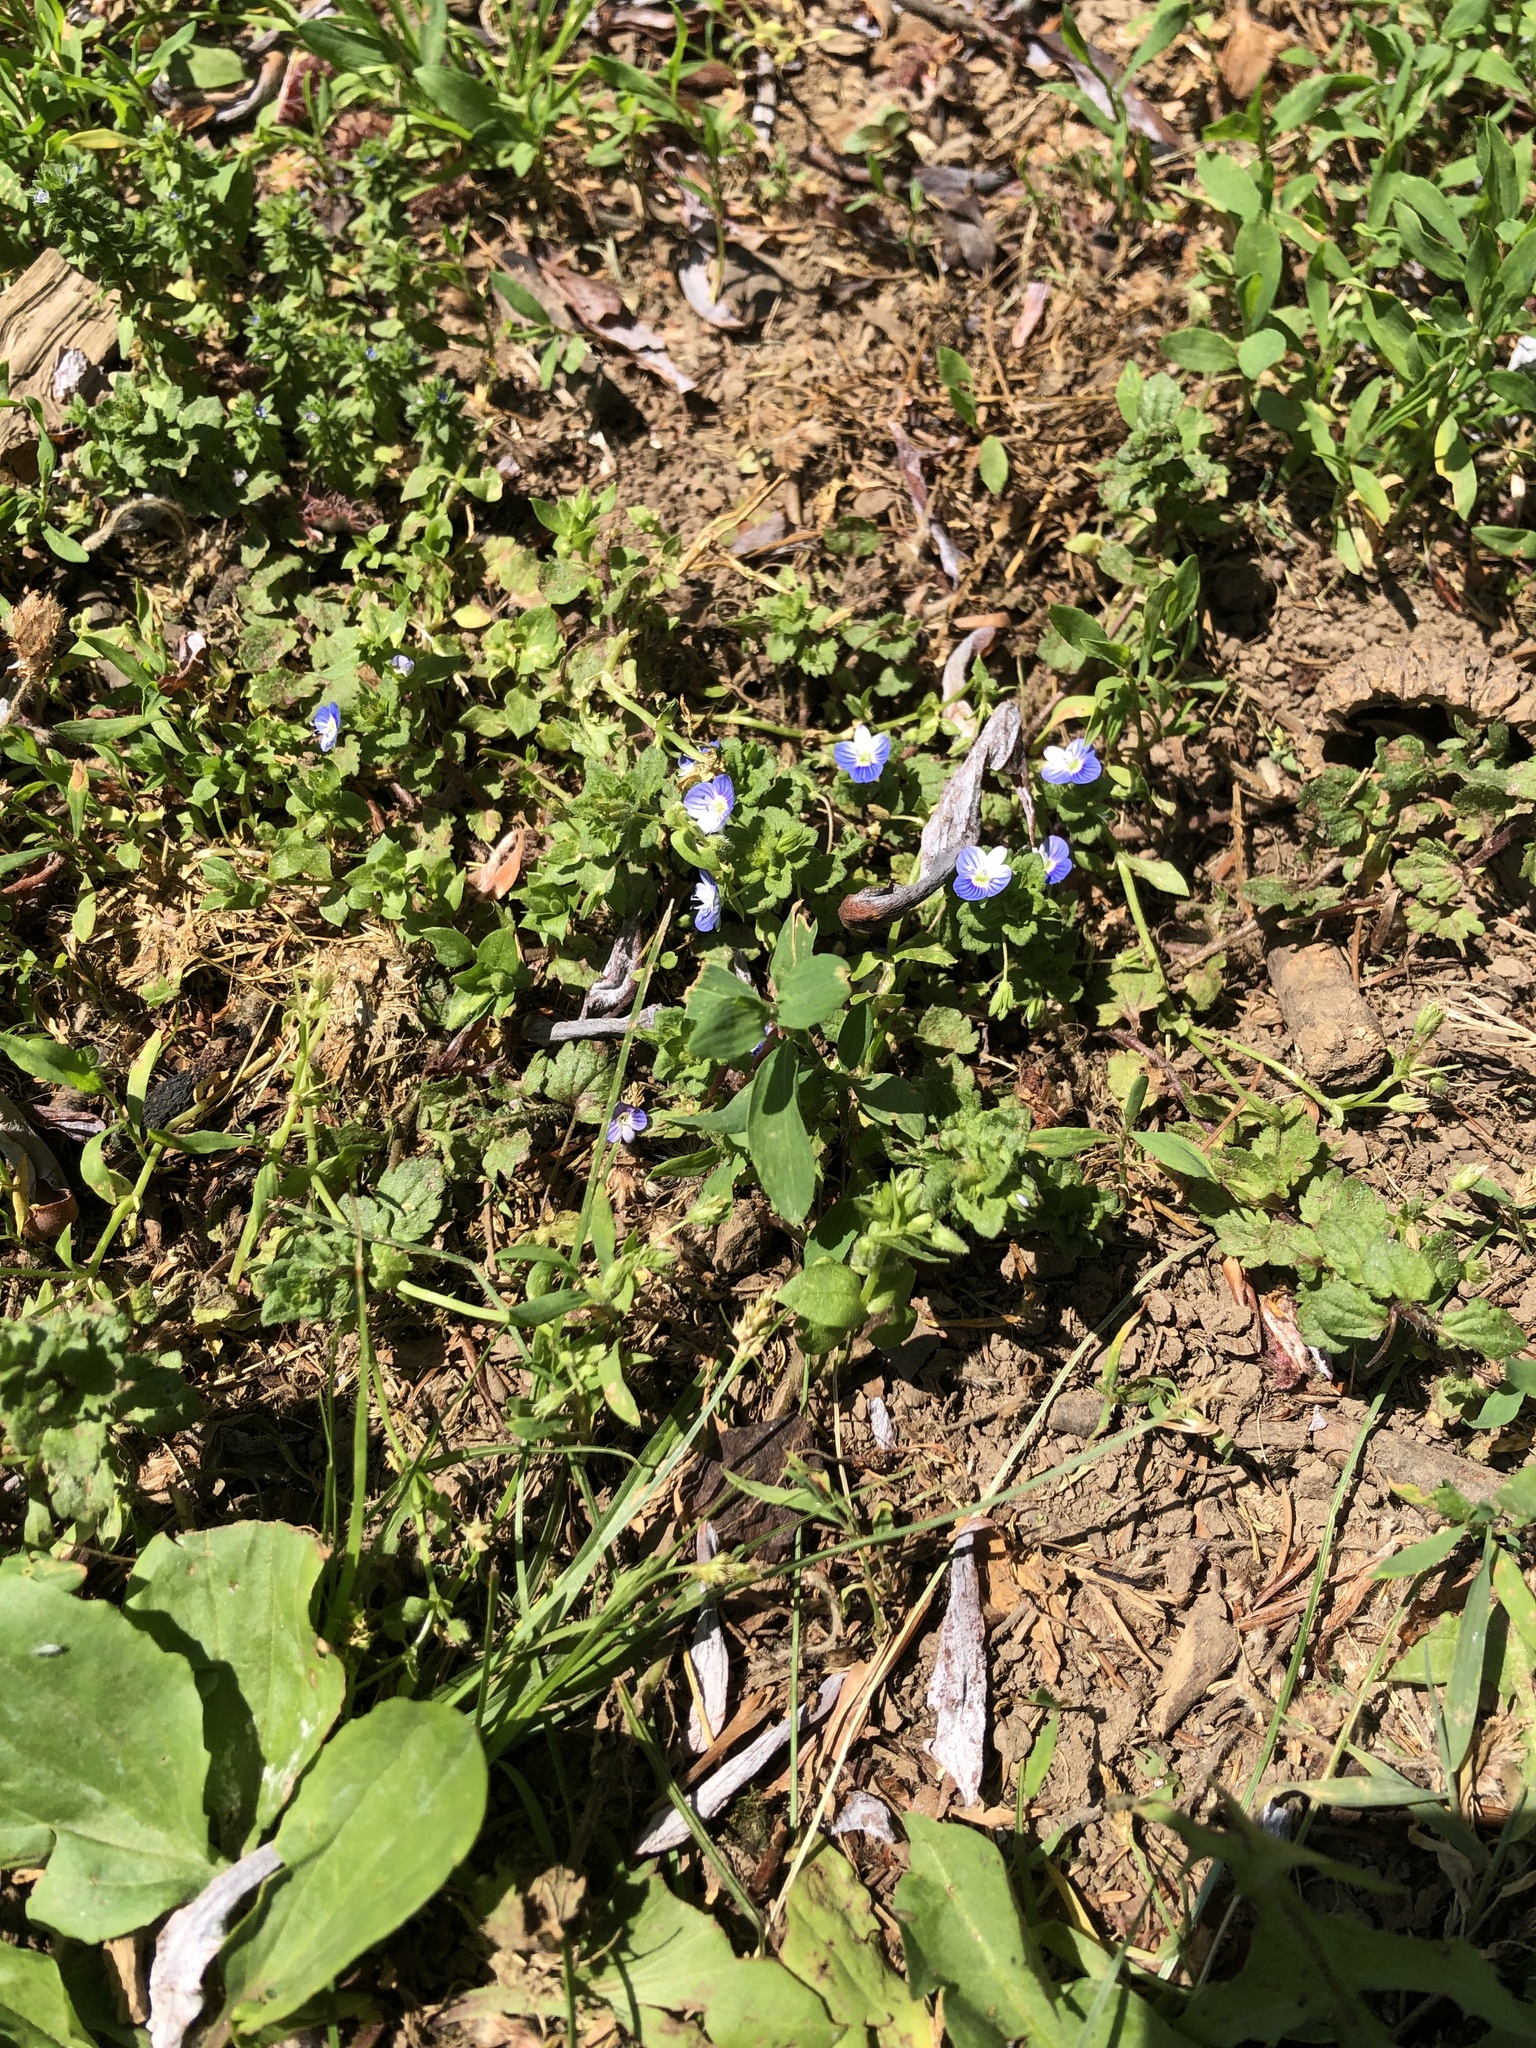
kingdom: Plantae
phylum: Tracheophyta
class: Magnoliopsida
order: Lamiales
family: Plantaginaceae
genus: Veronica
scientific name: Veronica persica
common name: Common field-speedwell
